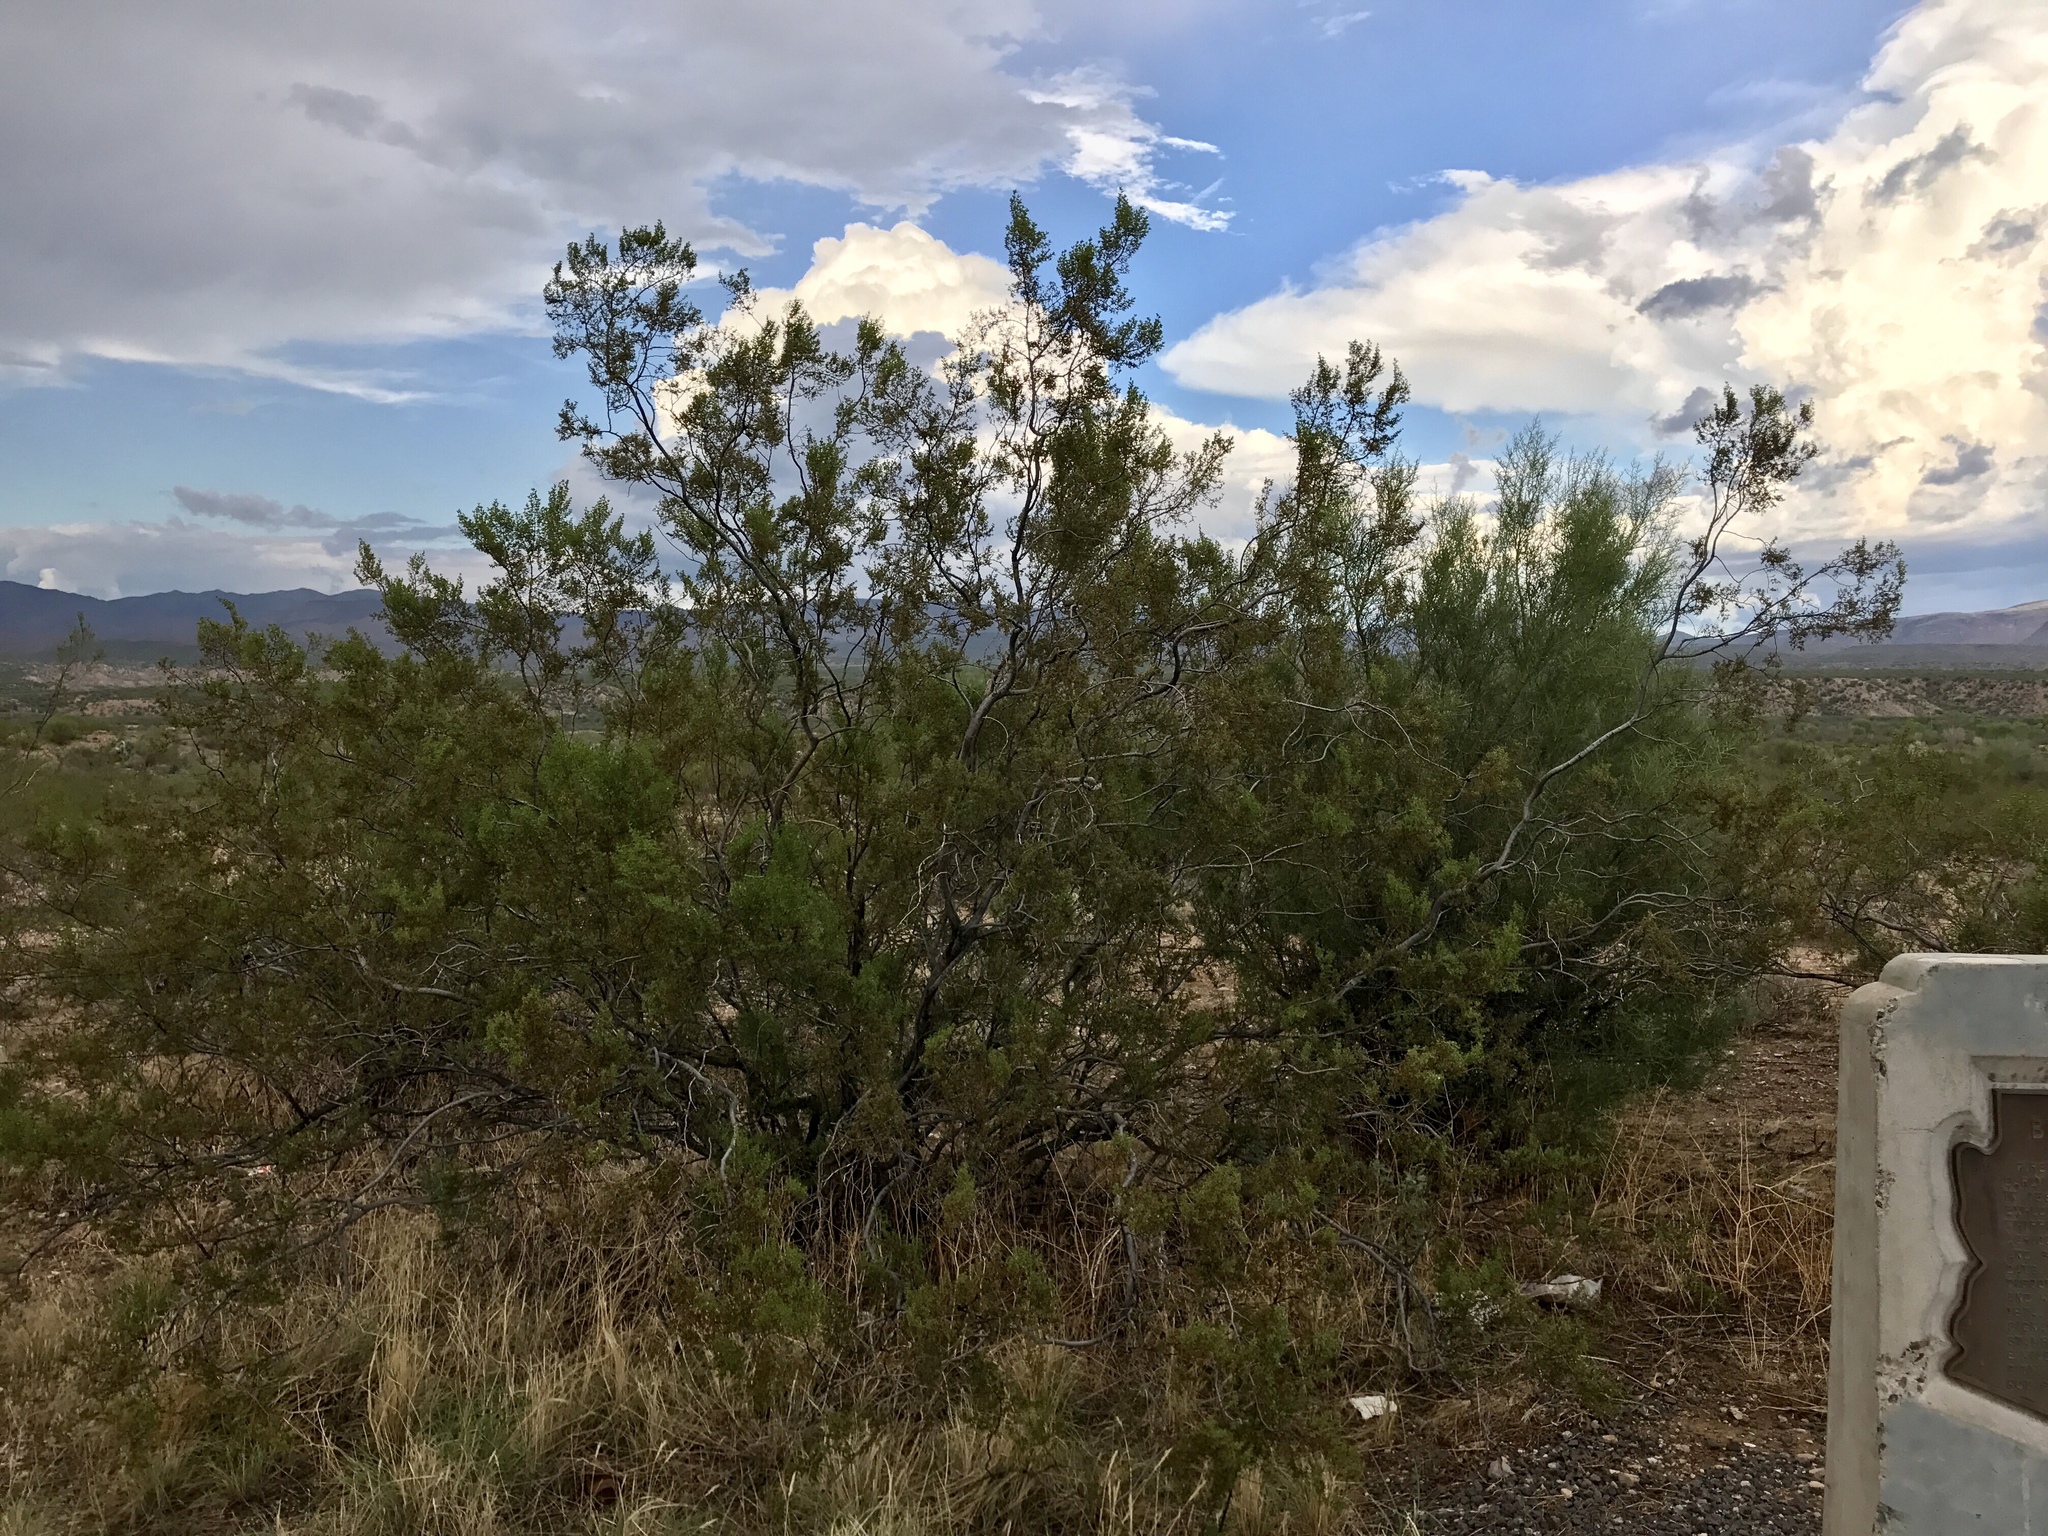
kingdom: Plantae
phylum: Tracheophyta
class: Magnoliopsida
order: Zygophyllales
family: Zygophyllaceae
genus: Larrea
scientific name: Larrea tridentata
